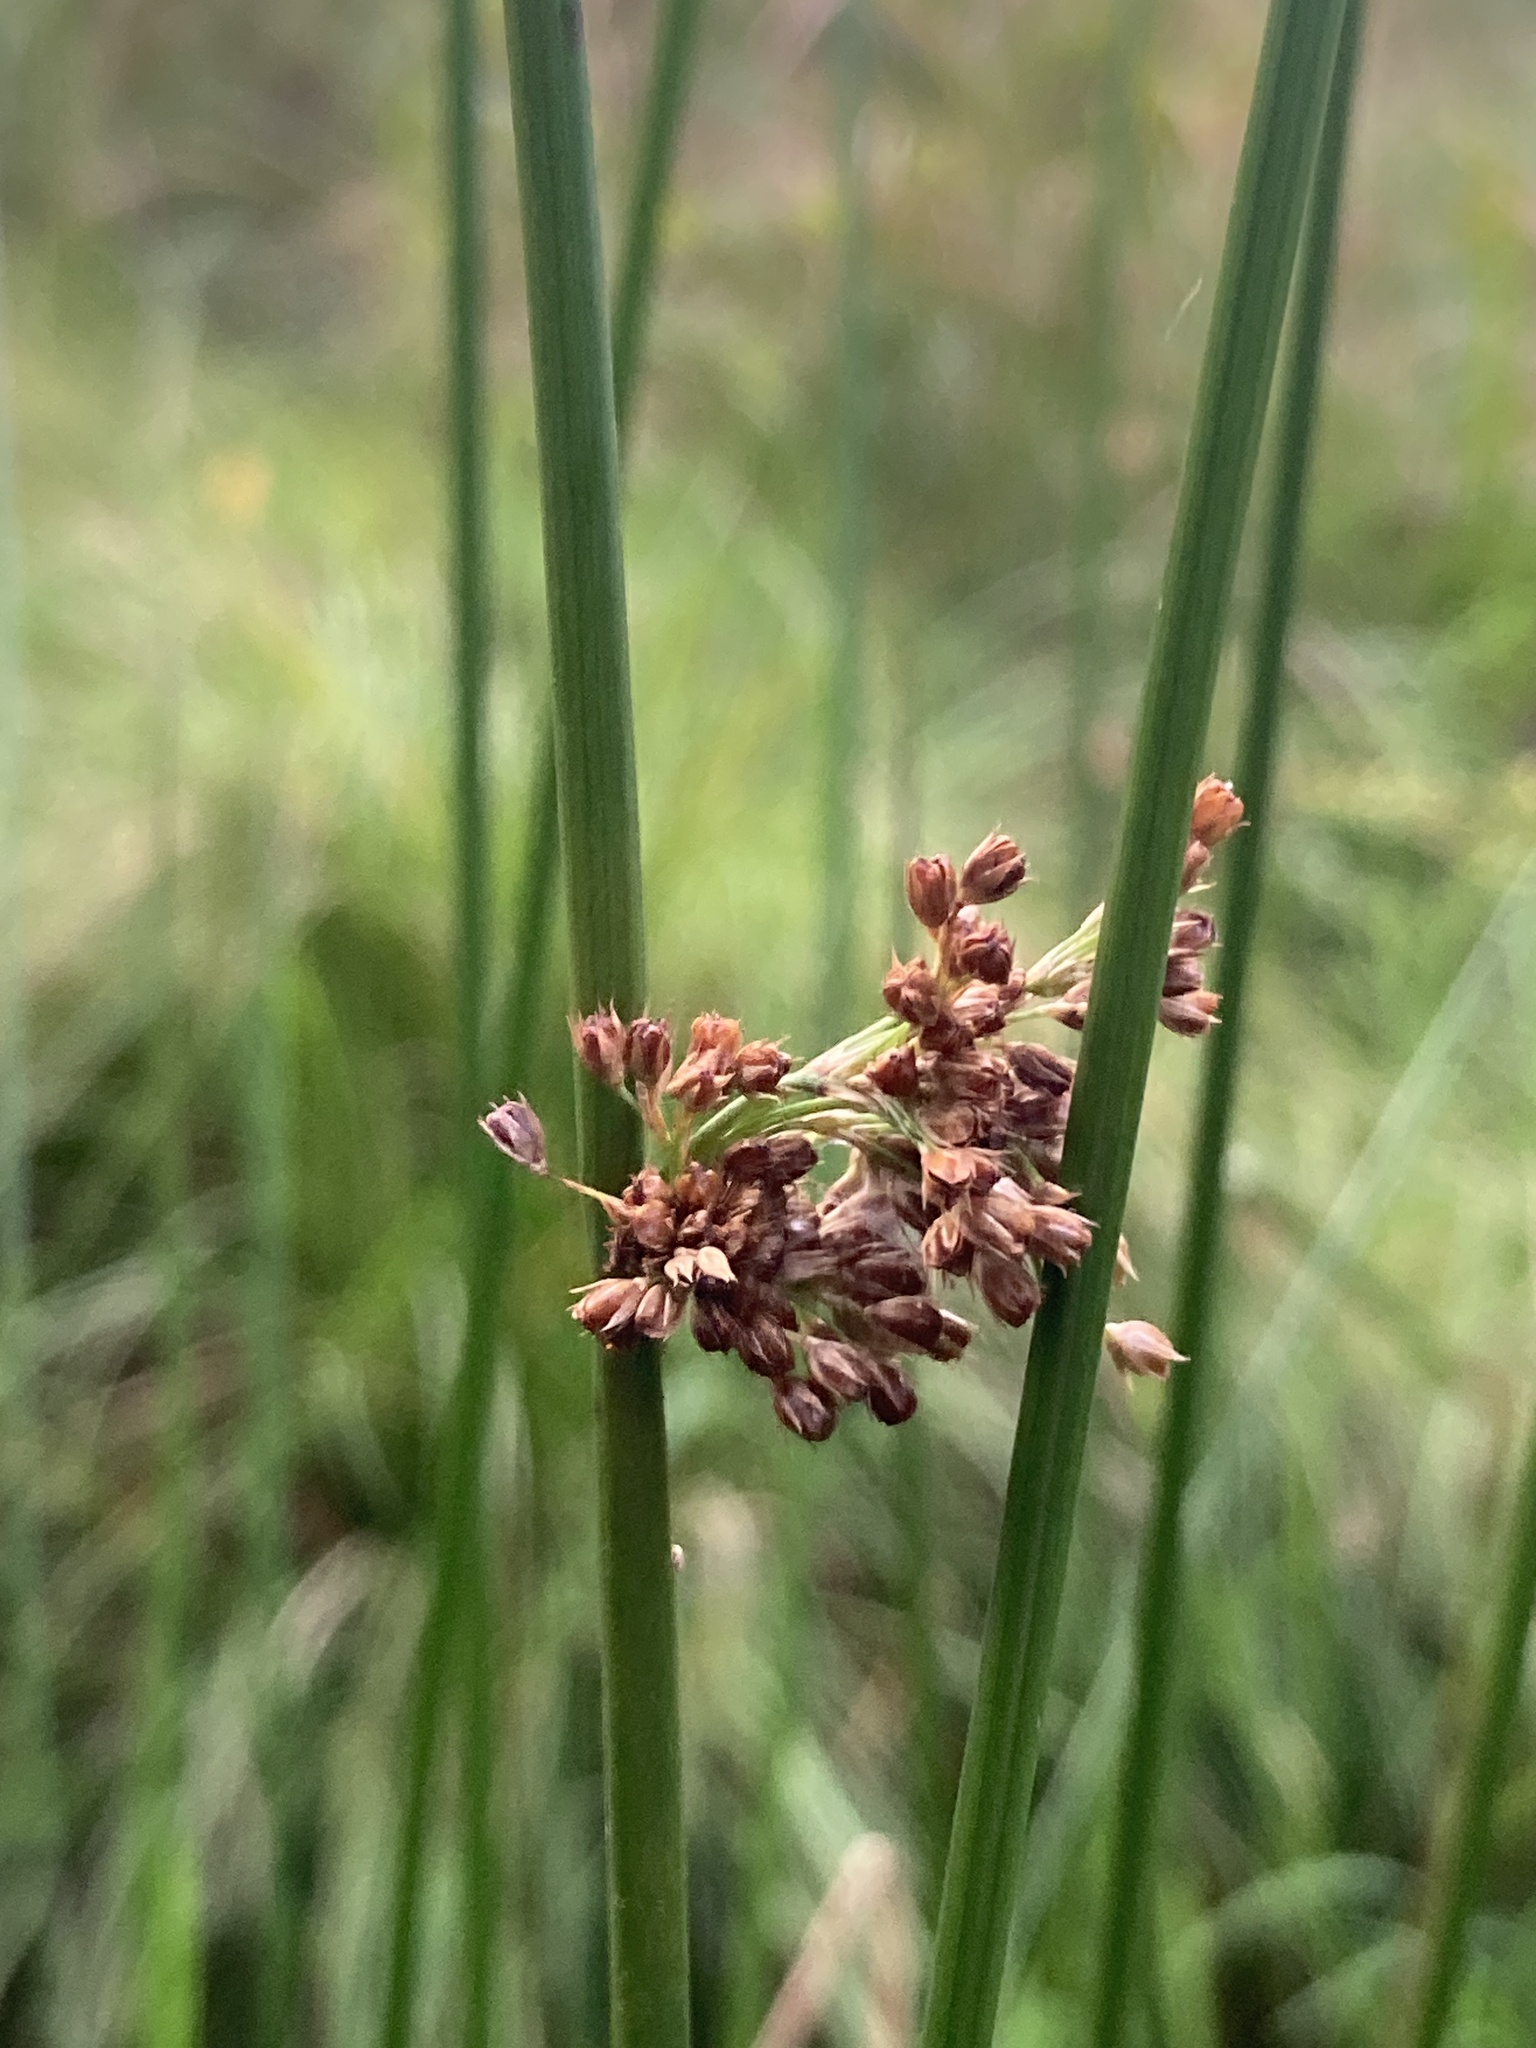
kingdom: Plantae
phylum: Tracheophyta
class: Liliopsida
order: Poales
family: Juncaceae
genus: Juncus
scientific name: Juncus effusus
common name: Soft rush
